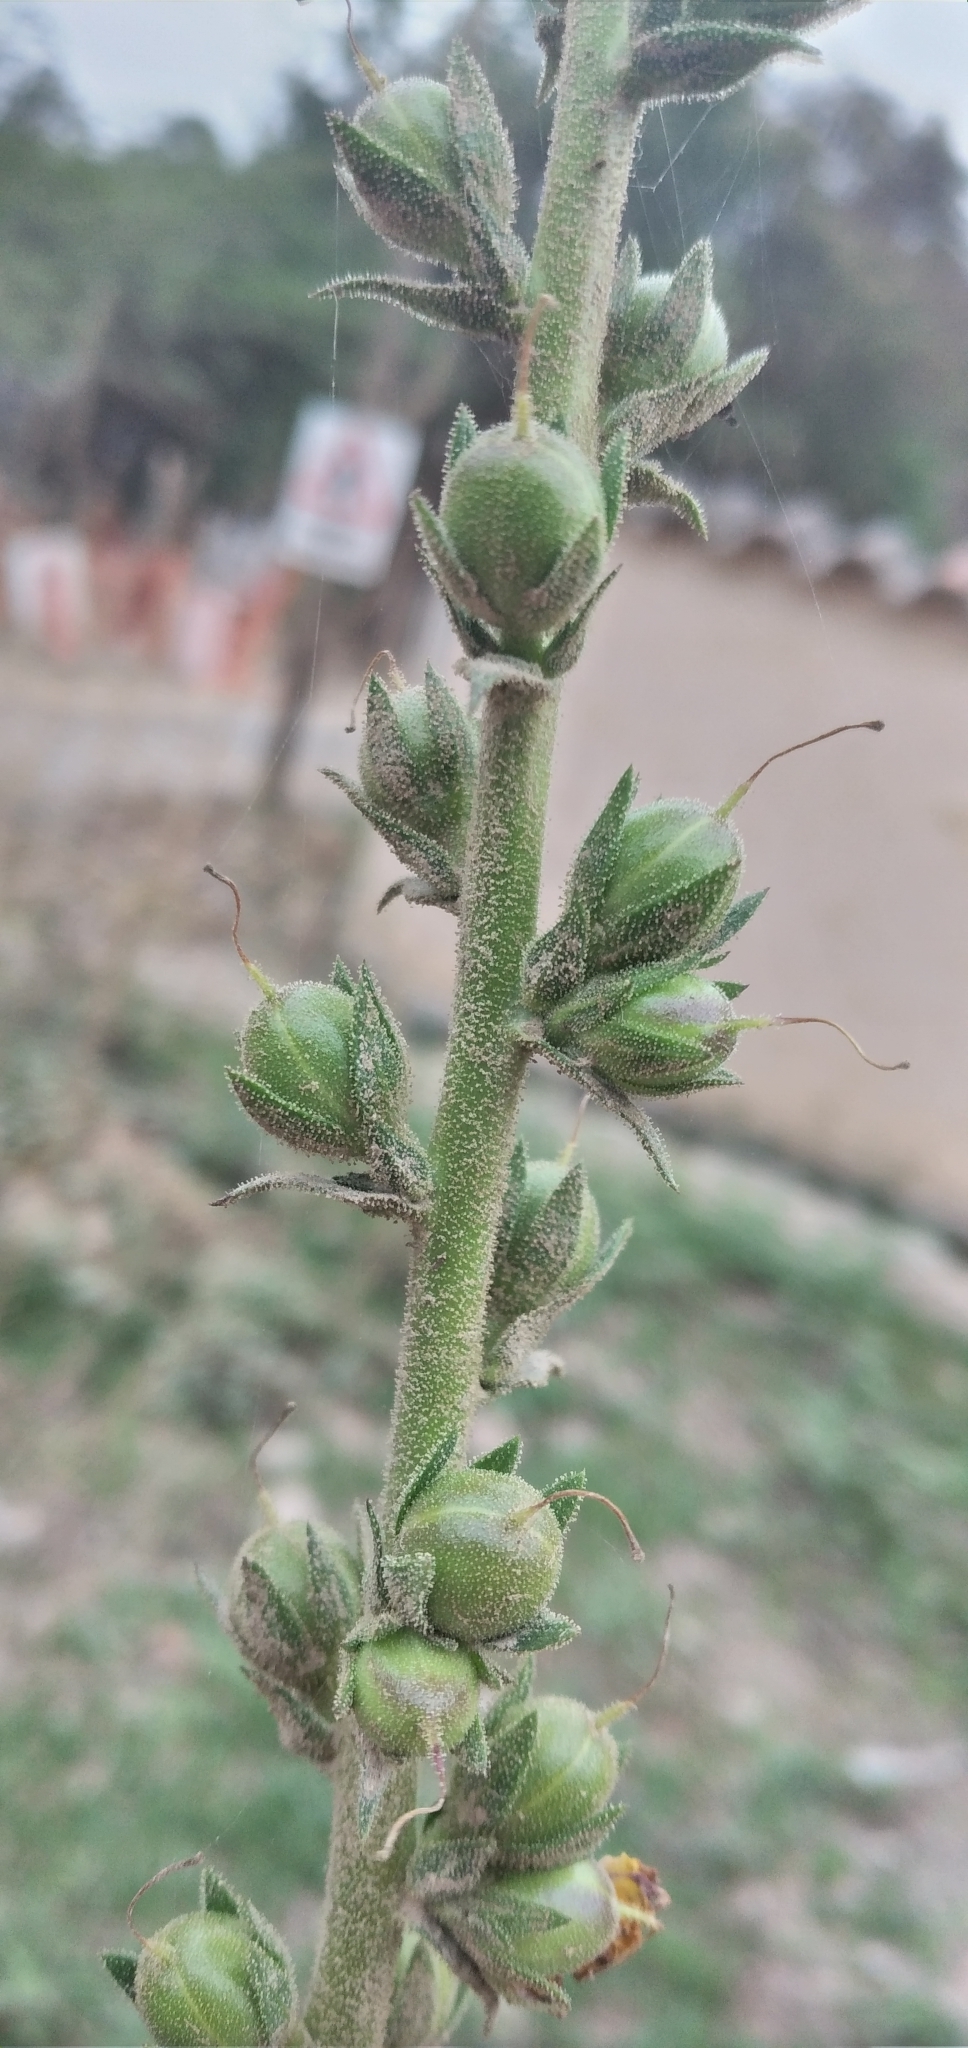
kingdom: Plantae
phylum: Tracheophyta
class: Magnoliopsida
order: Lamiales
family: Scrophulariaceae
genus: Verbascum
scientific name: Verbascum virgatum
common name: Twiggy mullein
